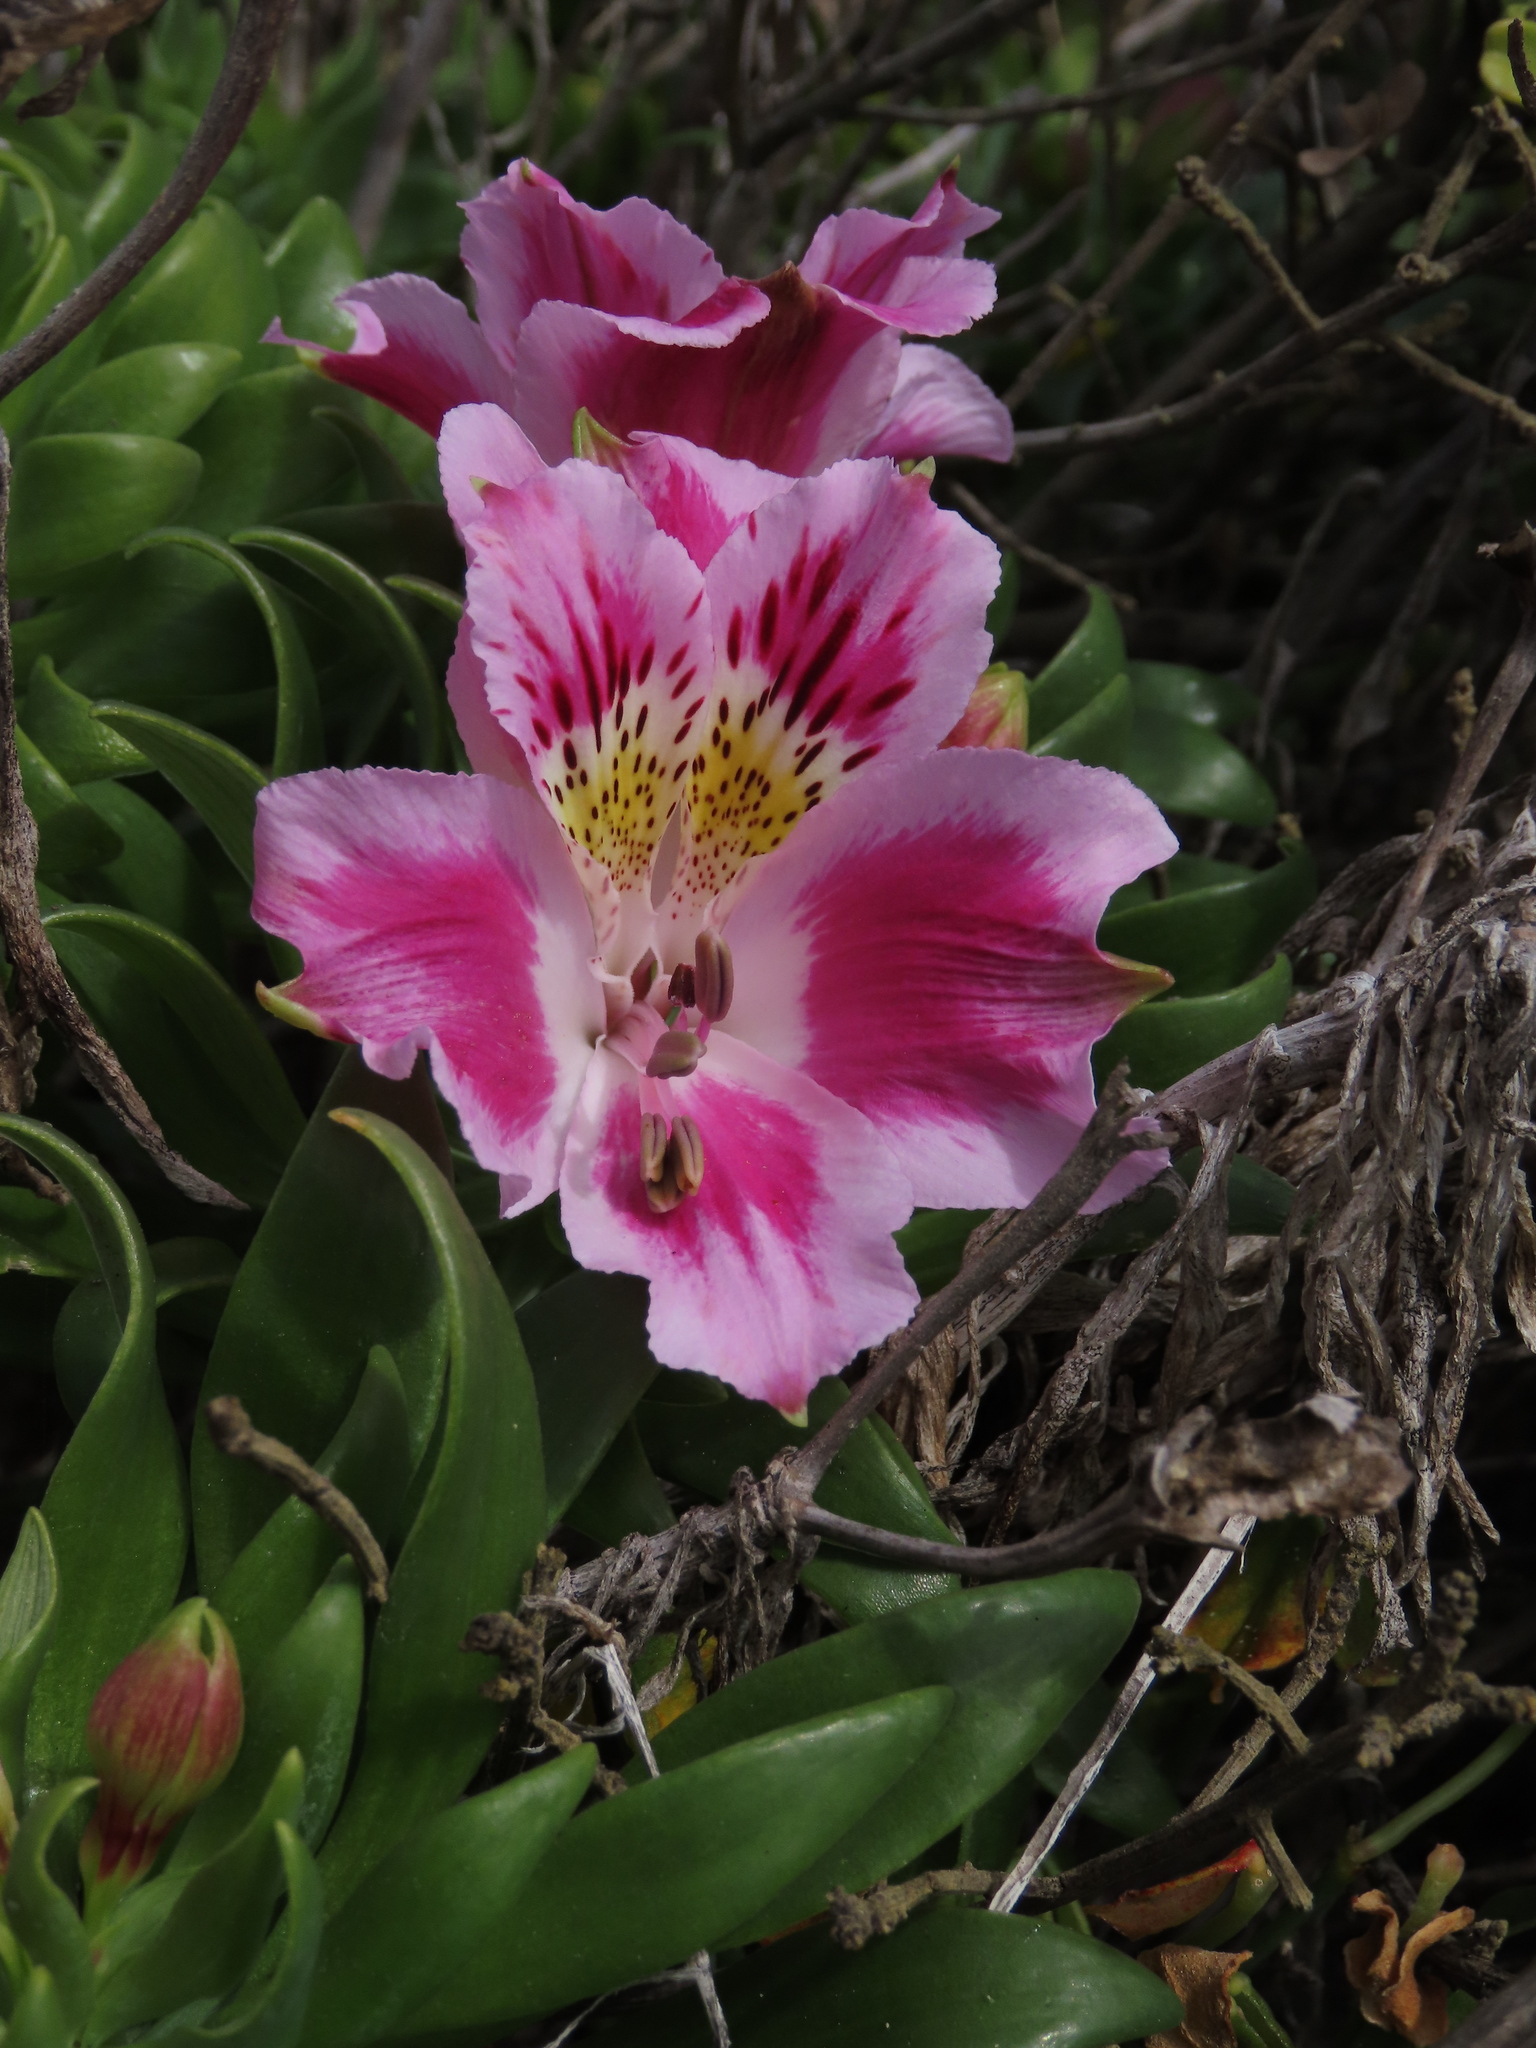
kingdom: Plantae
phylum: Tracheophyta
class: Liliopsida
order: Liliales
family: Alstroemeriaceae
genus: Alstroemeria
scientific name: Alstroemeria pelegrina
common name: Peruvian-lily
